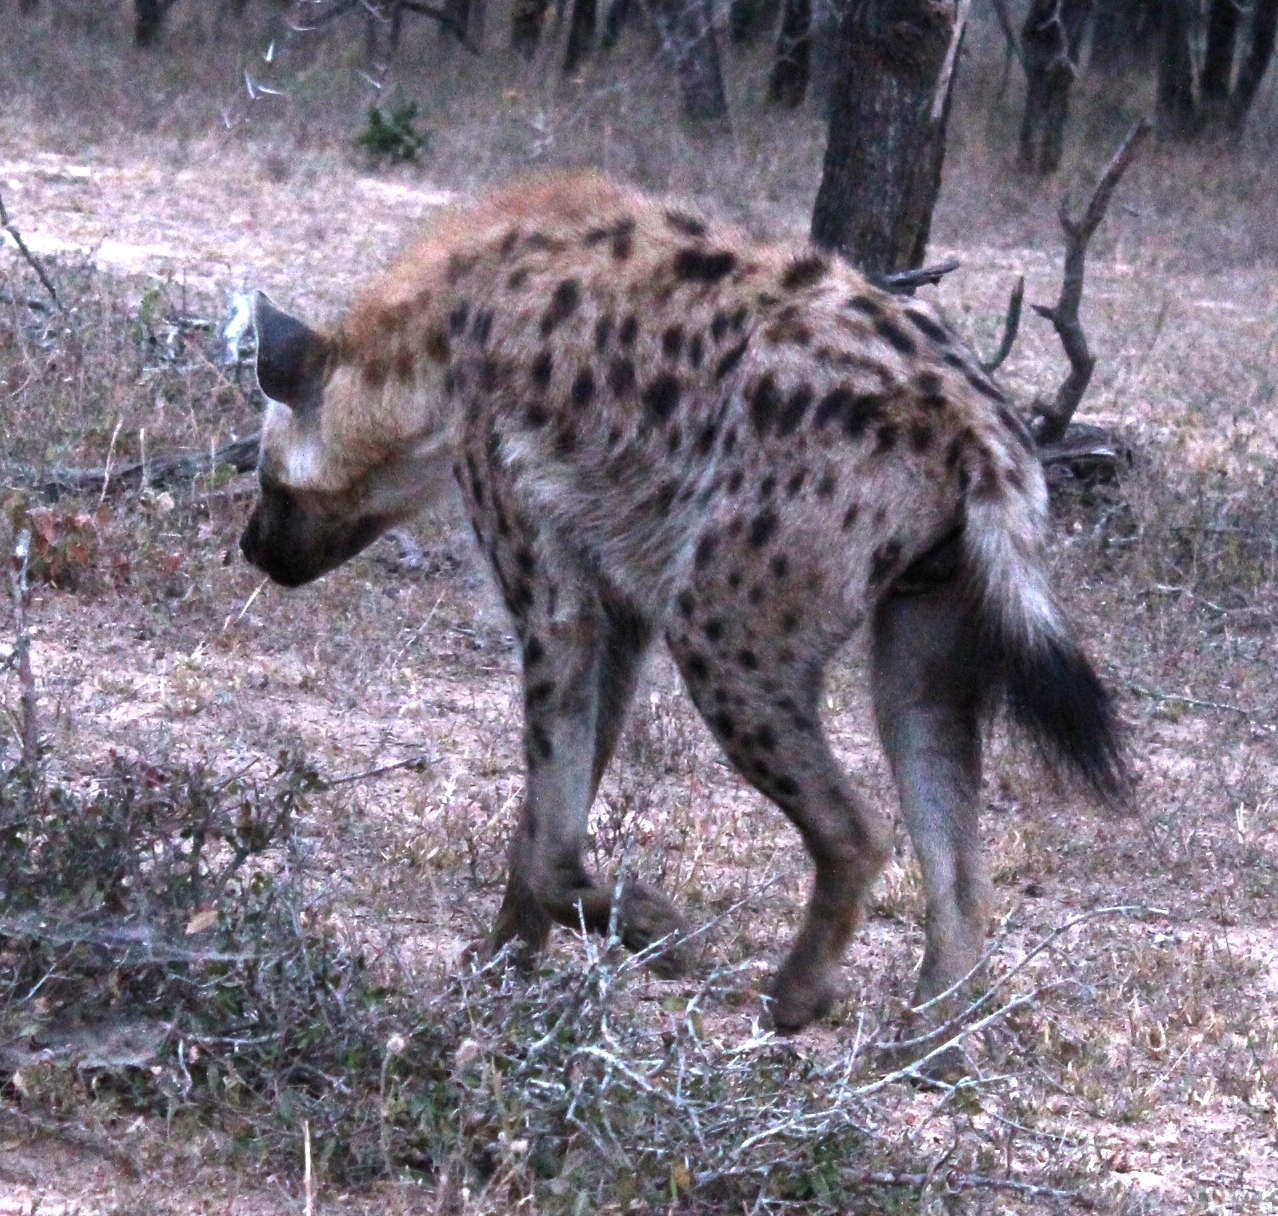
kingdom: Animalia
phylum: Chordata
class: Mammalia
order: Carnivora
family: Hyaenidae
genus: Crocuta
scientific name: Crocuta crocuta
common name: Spotted hyaena
